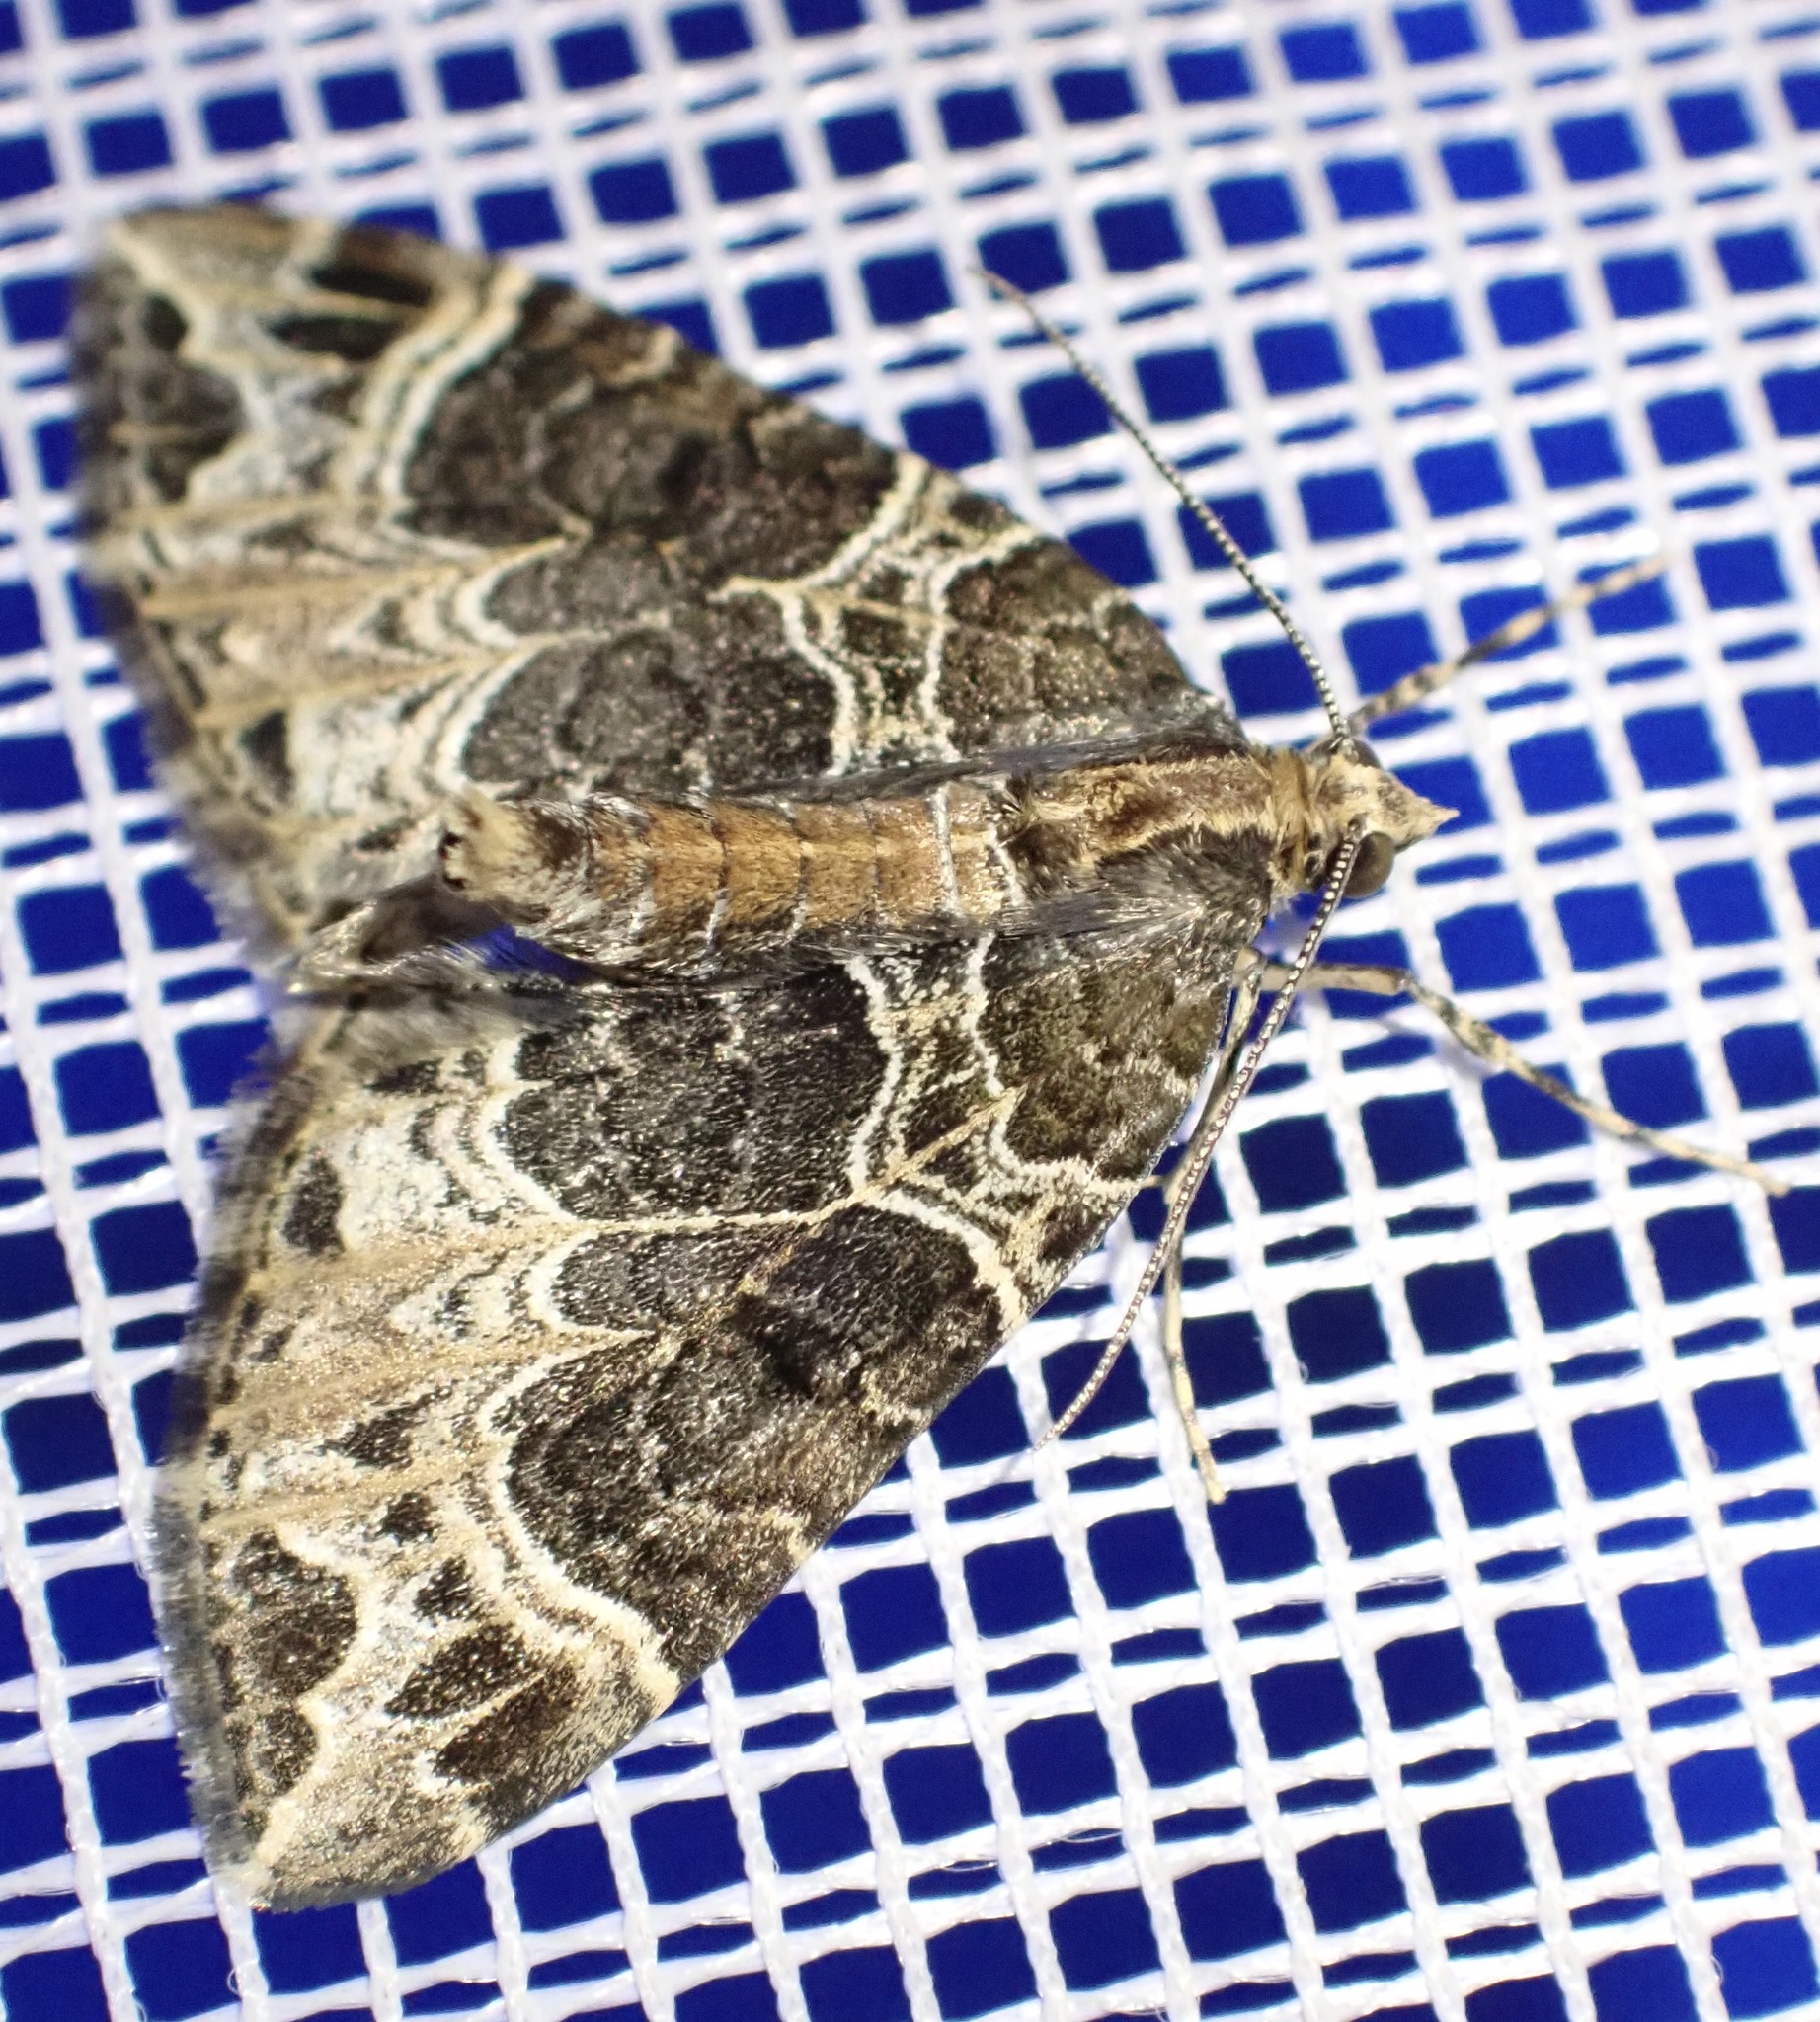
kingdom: Animalia
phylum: Arthropoda
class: Insecta
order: Lepidoptera
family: Geometridae
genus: Ecliptopera
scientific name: Ecliptopera silaceata
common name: Small phoenix
